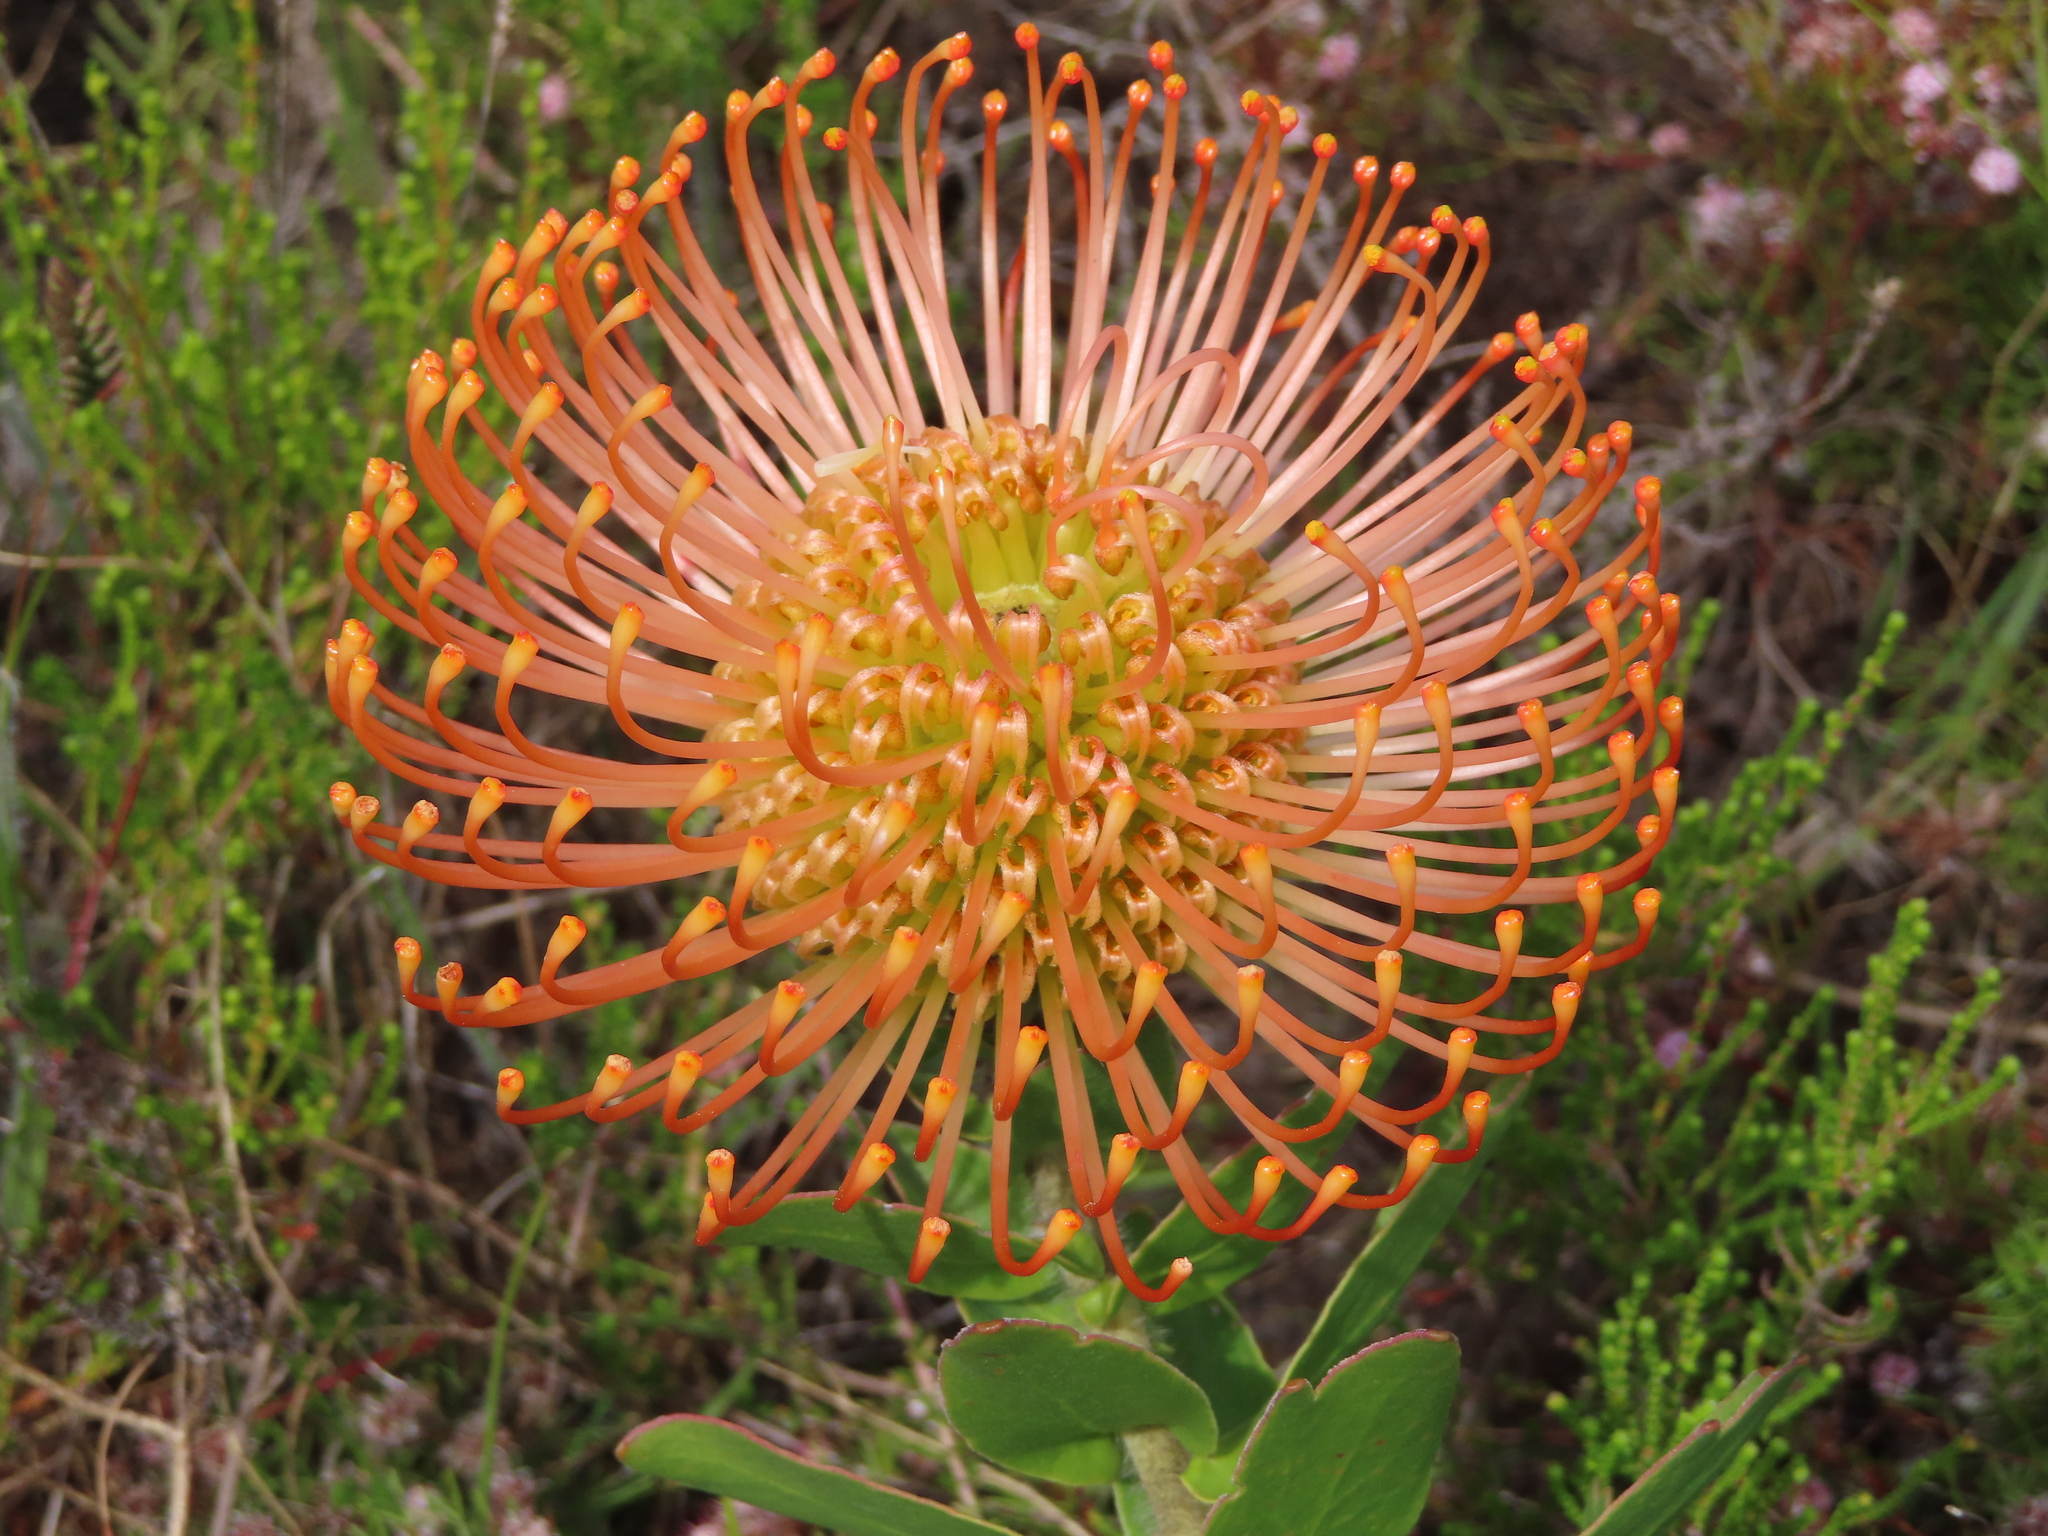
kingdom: Plantae
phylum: Tracheophyta
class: Magnoliopsida
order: Proteales
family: Proteaceae
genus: Leucospermum
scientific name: Leucospermum cordifolium
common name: Red pincushion-protea
